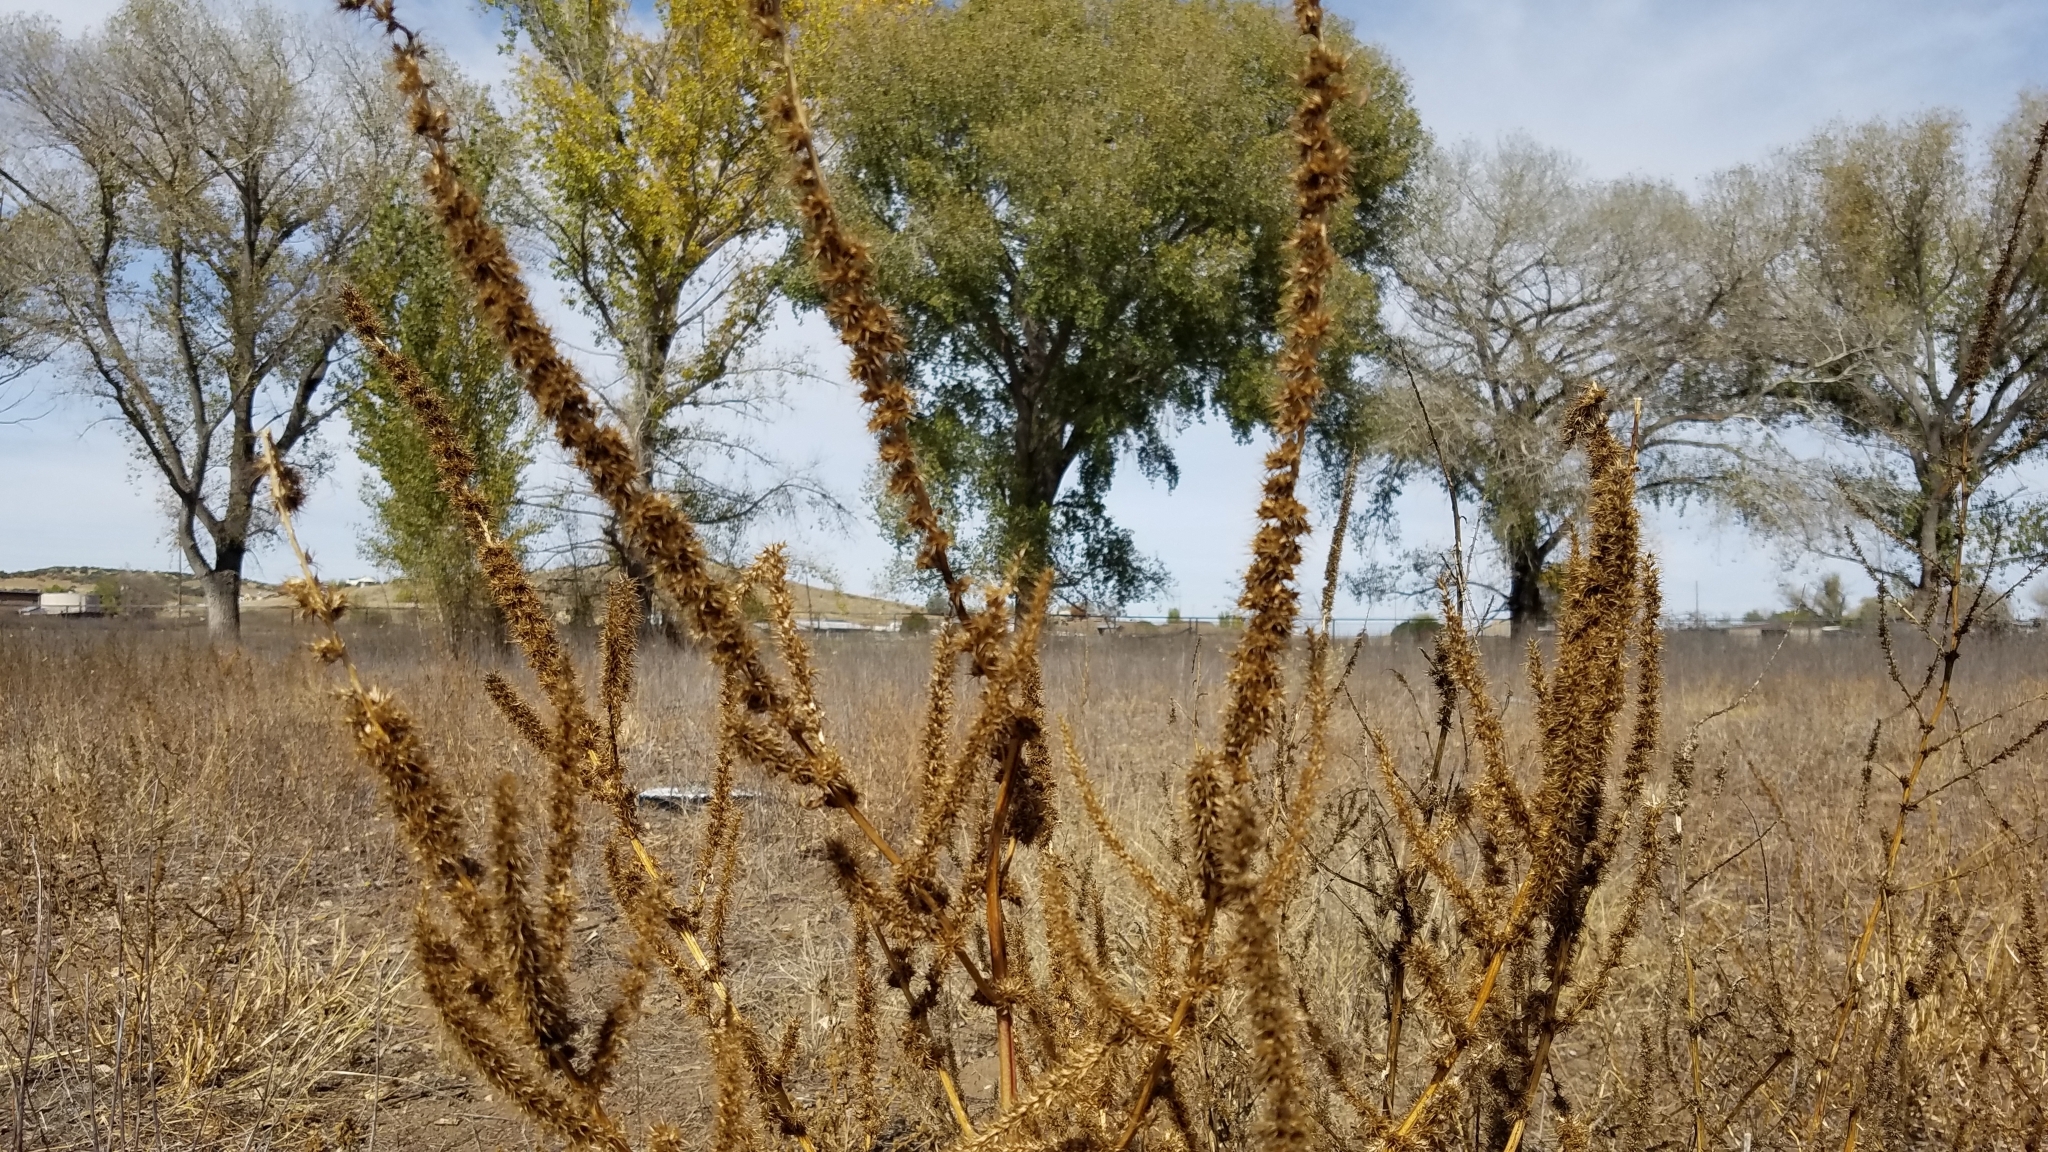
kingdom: Plantae
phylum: Tracheophyta
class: Magnoliopsida
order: Caryophyllales
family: Amaranthaceae
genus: Amaranthus
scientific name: Amaranthus palmeri
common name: Dioecious amaranth
